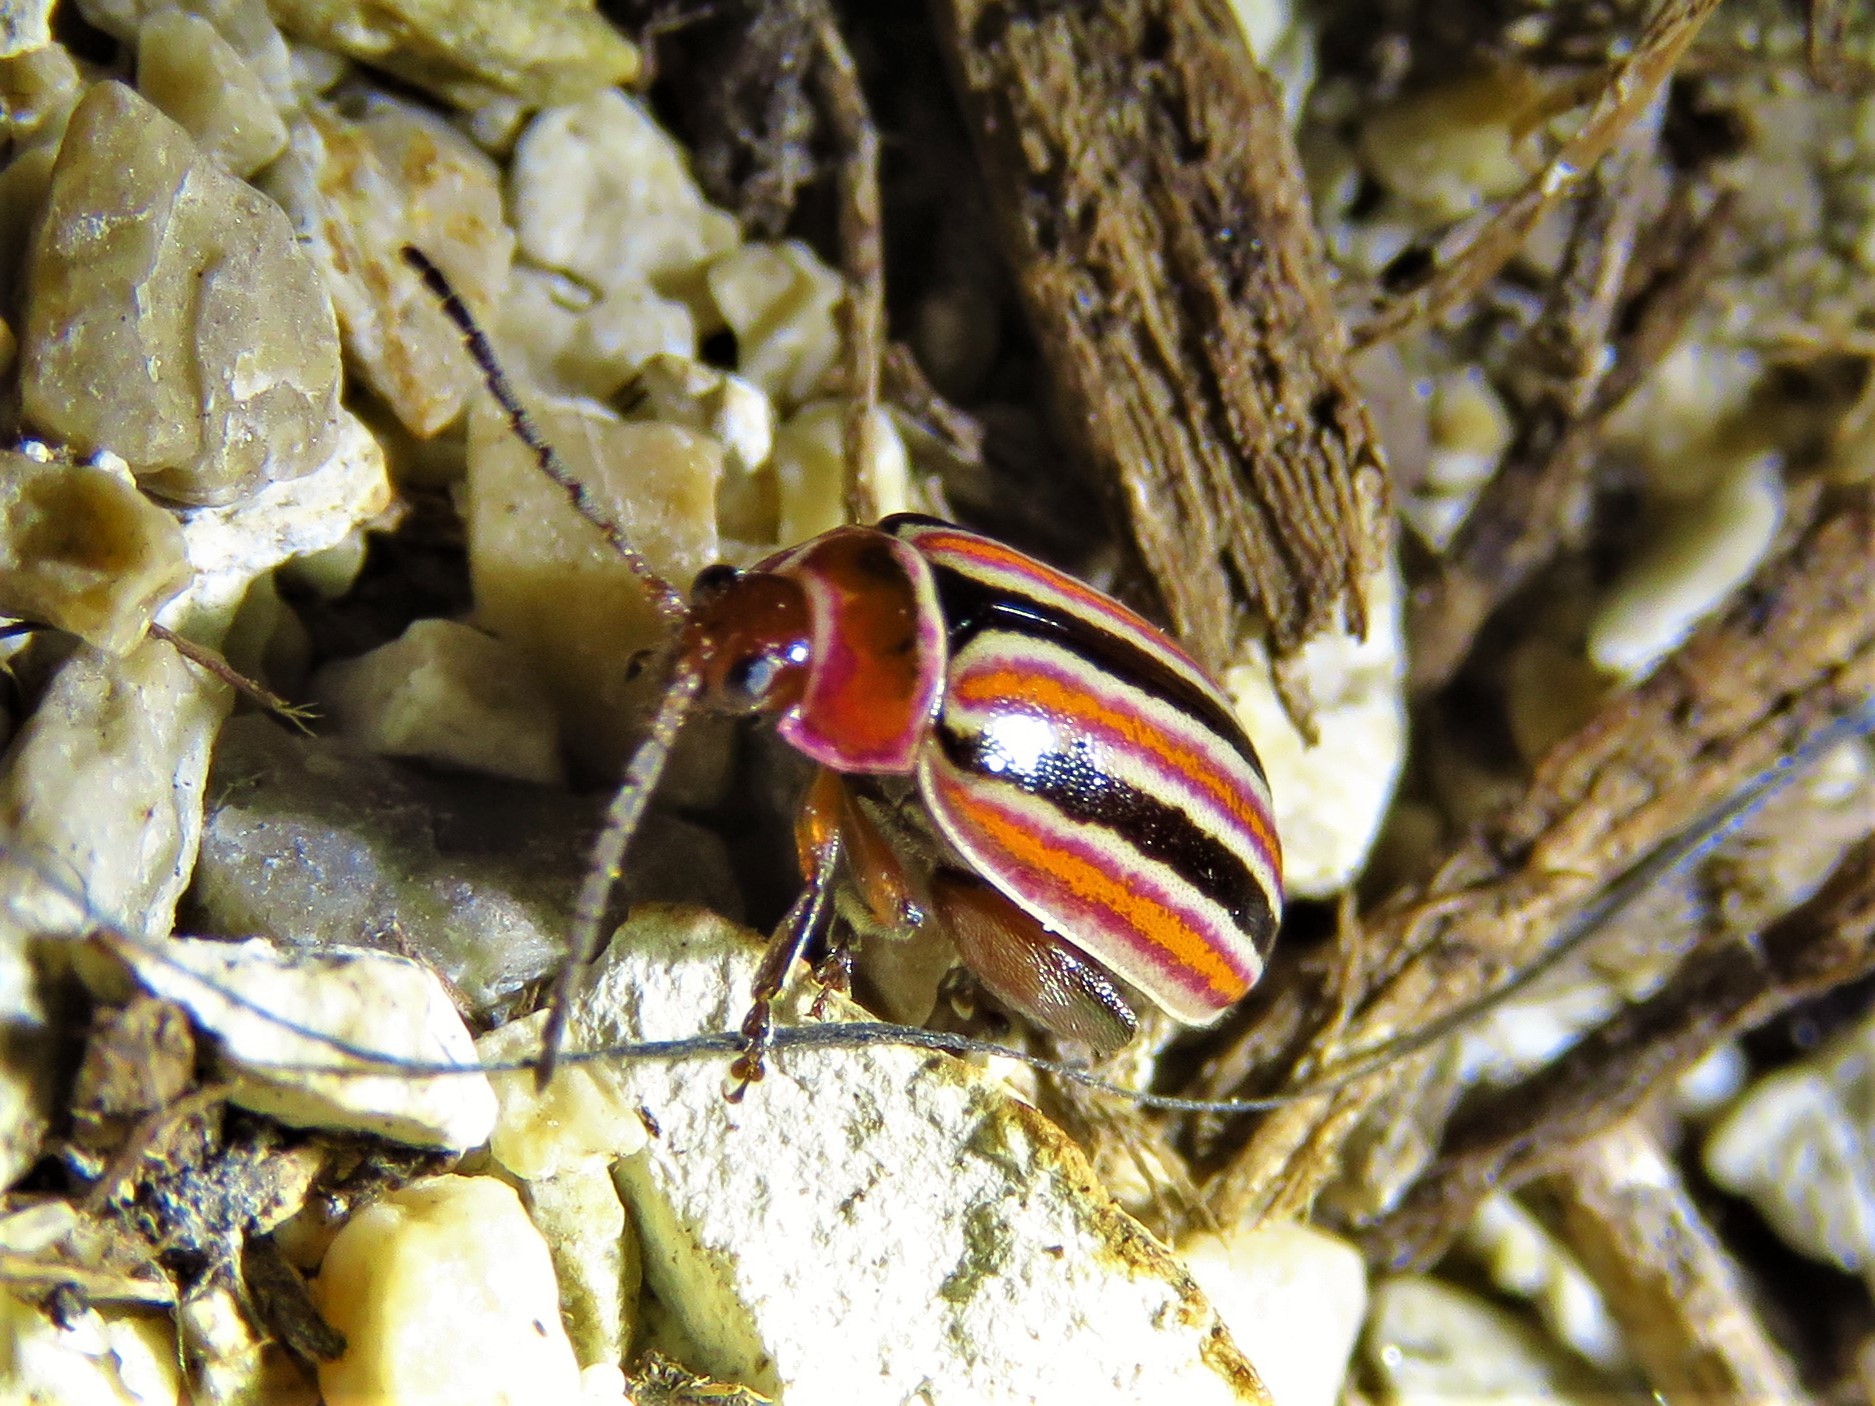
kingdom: Animalia
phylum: Arthropoda
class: Insecta
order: Coleoptera
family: Chrysomelidae
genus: Kuschelina
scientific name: Kuschelina miniata
